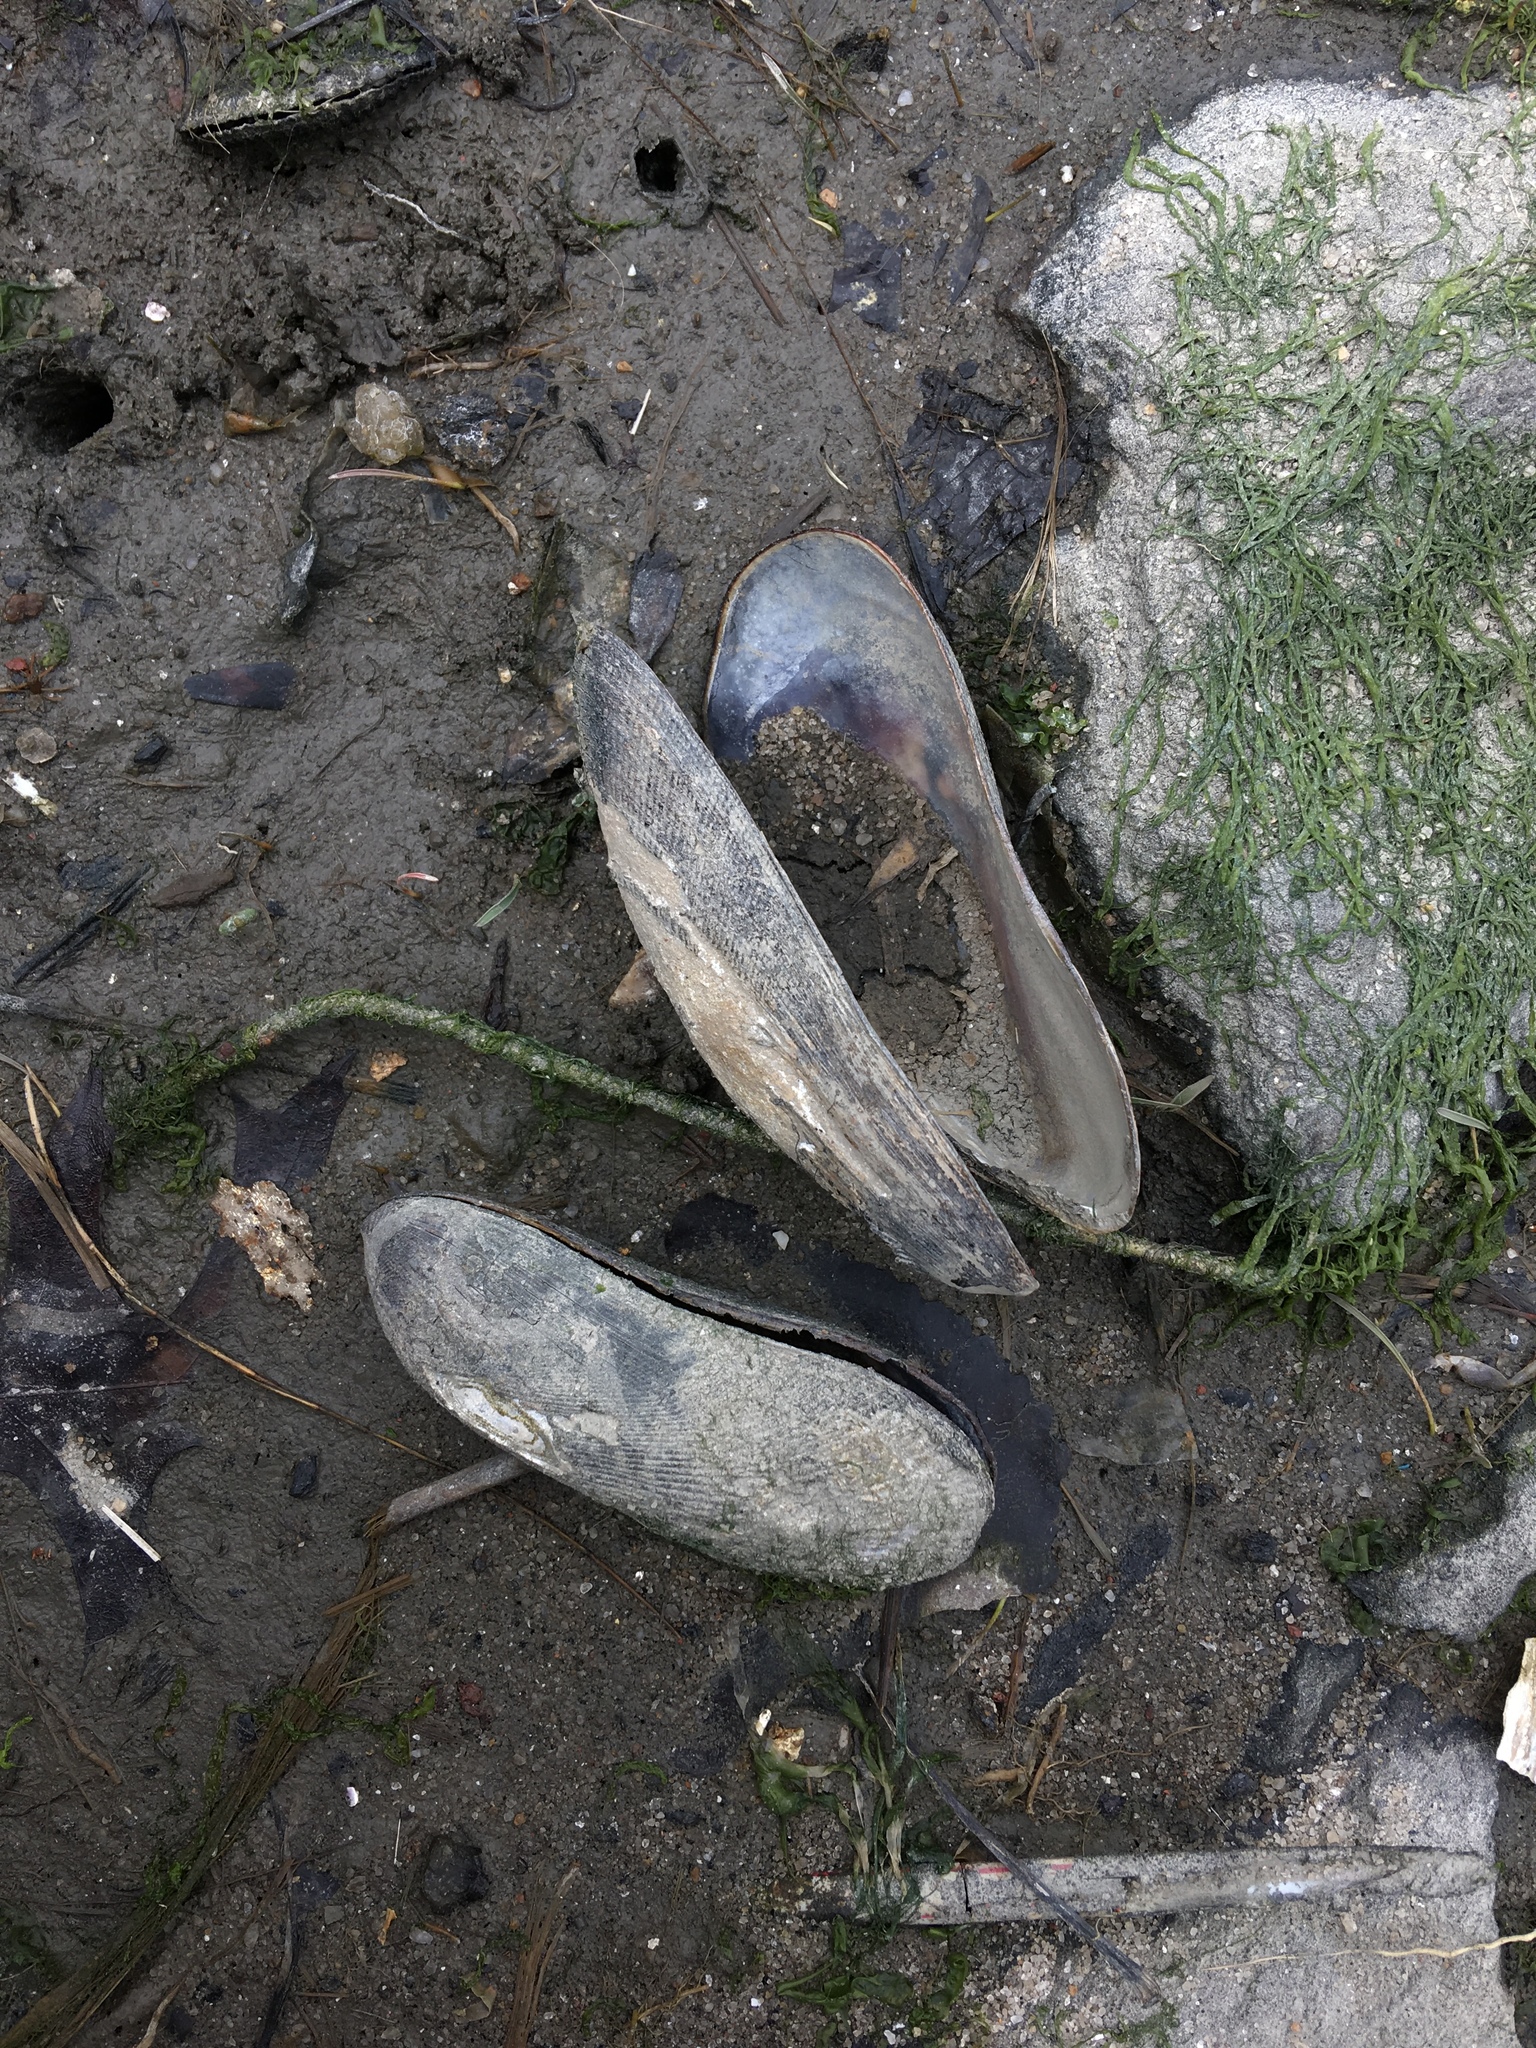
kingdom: Animalia
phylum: Mollusca
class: Bivalvia
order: Mytilida
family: Mytilidae
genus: Geukensia
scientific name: Geukensia demissa
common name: Ribbed mussel
